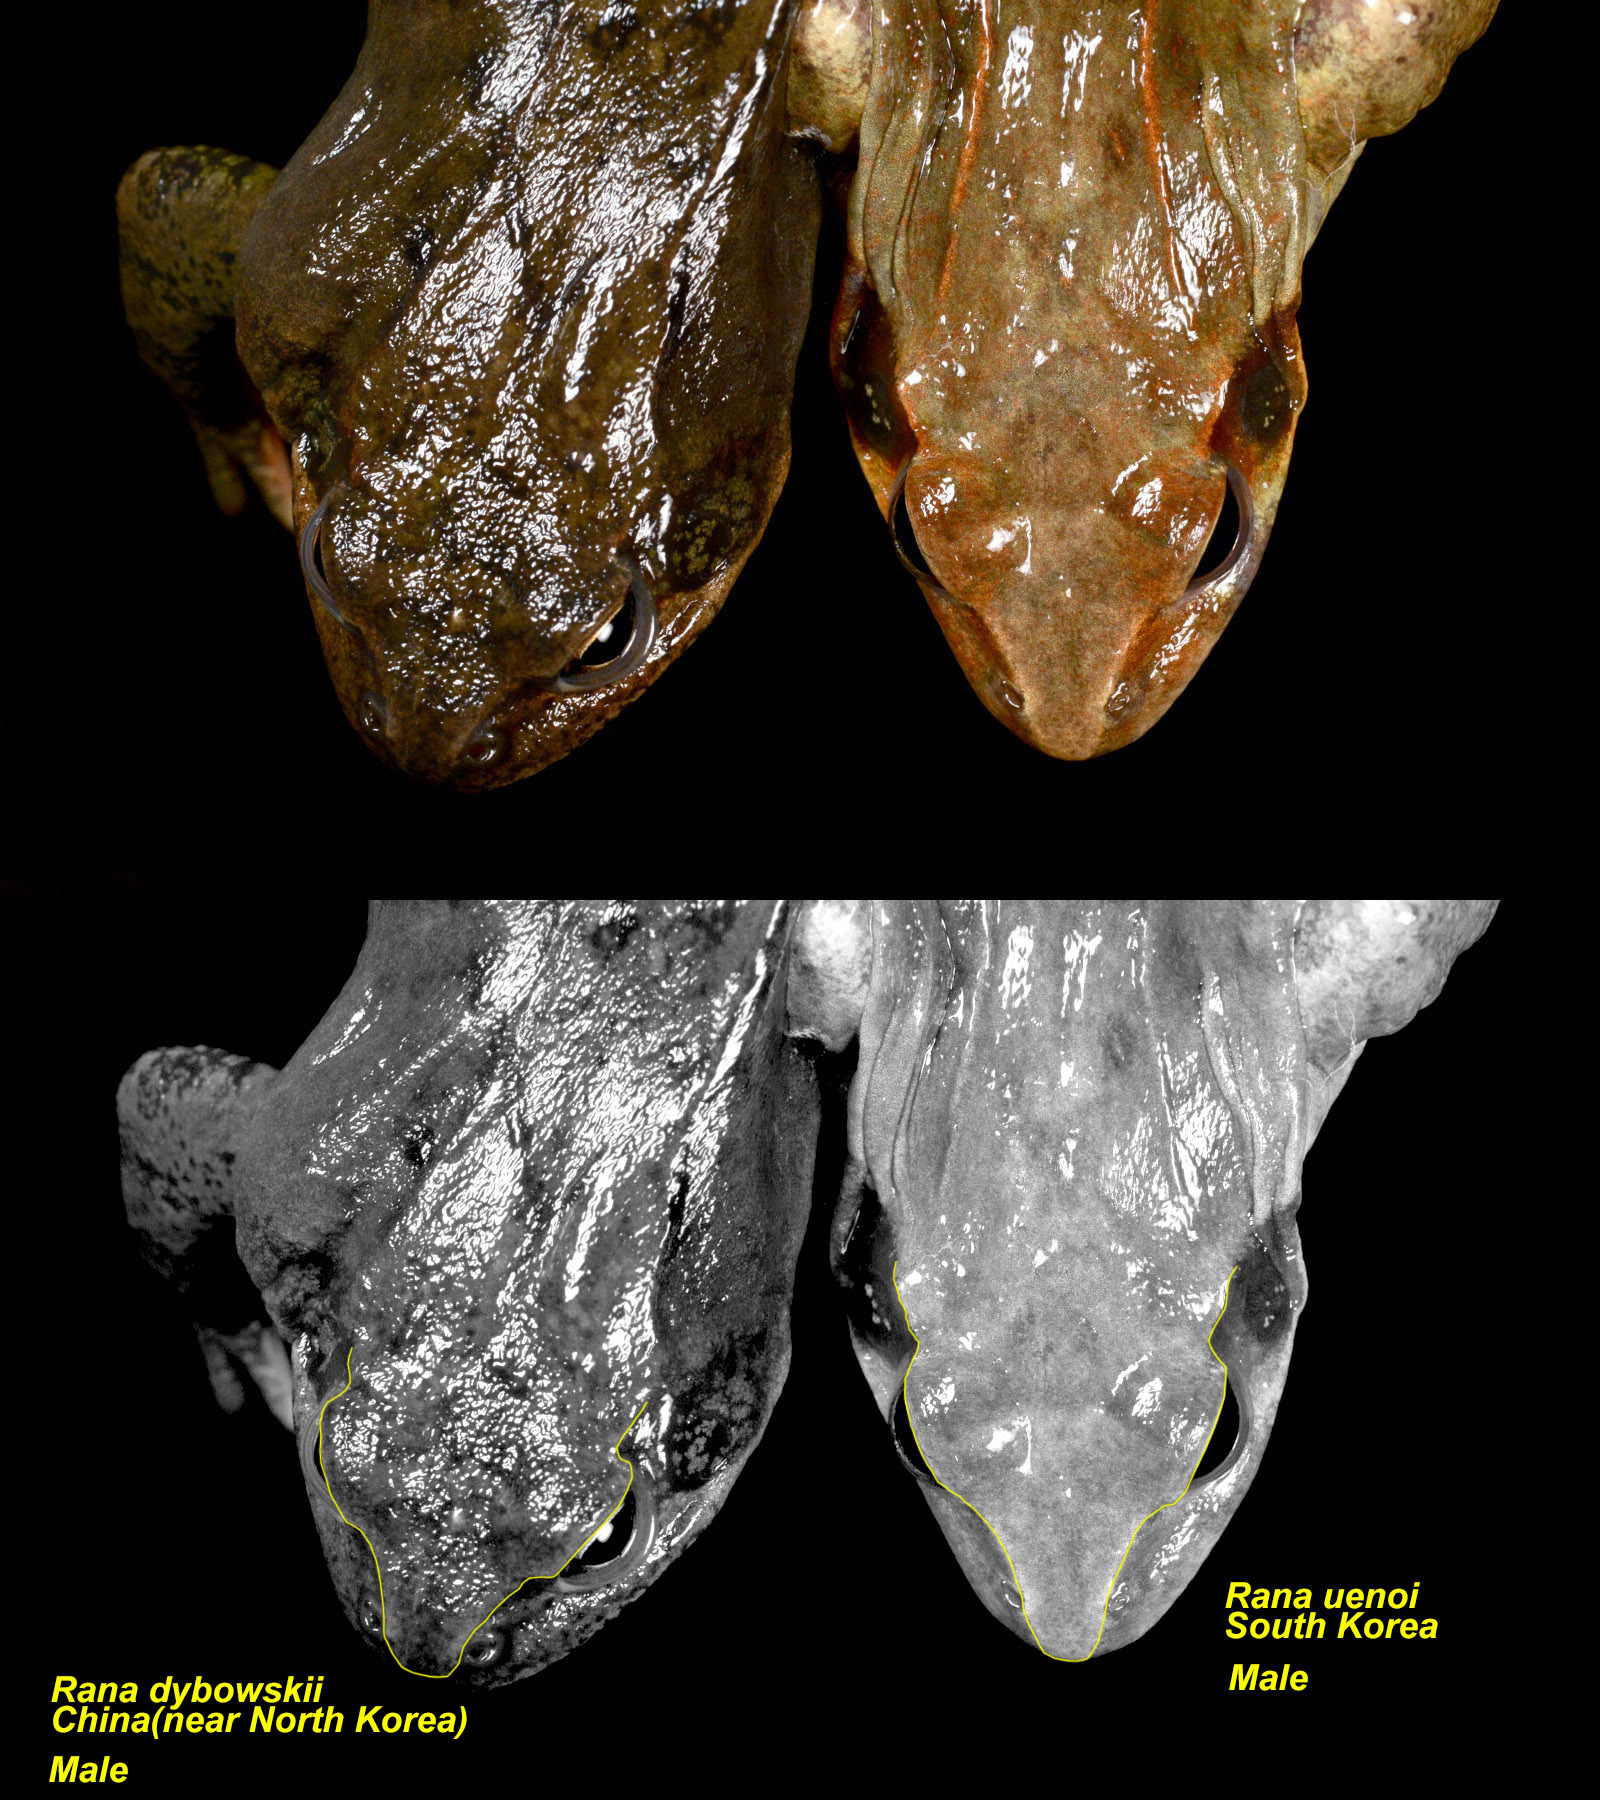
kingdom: Animalia
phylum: Chordata
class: Amphibia
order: Anura
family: Ranidae
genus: Rana
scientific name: Rana uenoi
